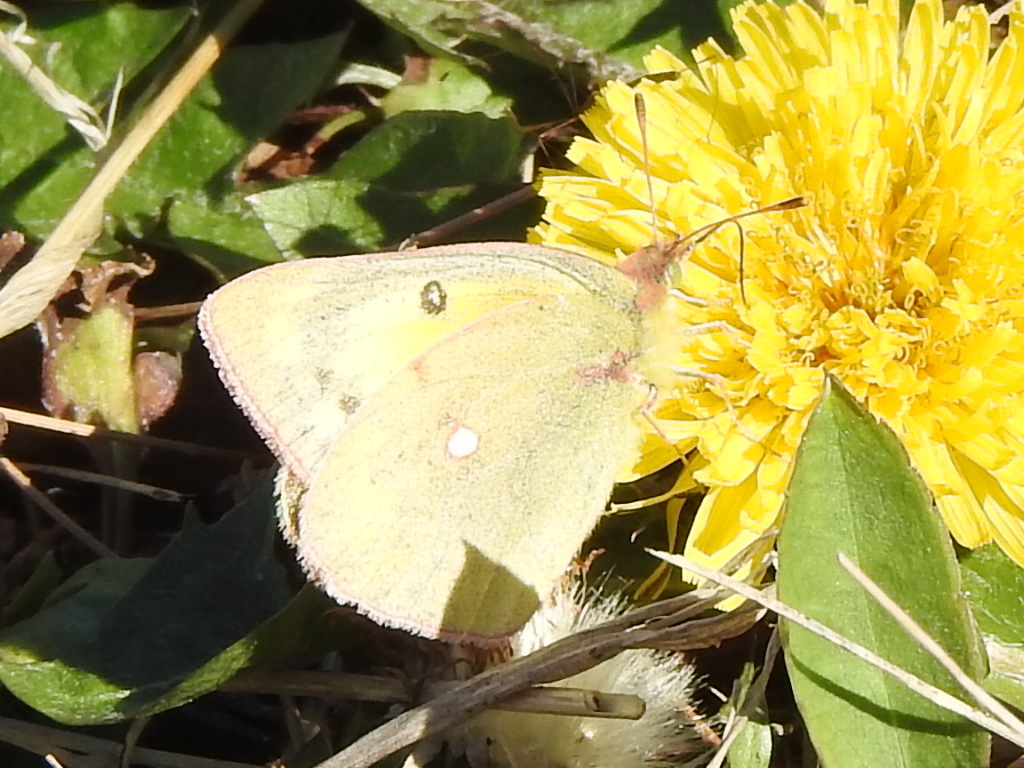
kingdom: Animalia
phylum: Arthropoda
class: Insecta
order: Lepidoptera
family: Pieridae
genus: Colias
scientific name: Colias eurytheme
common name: Alfalfa butterfly
